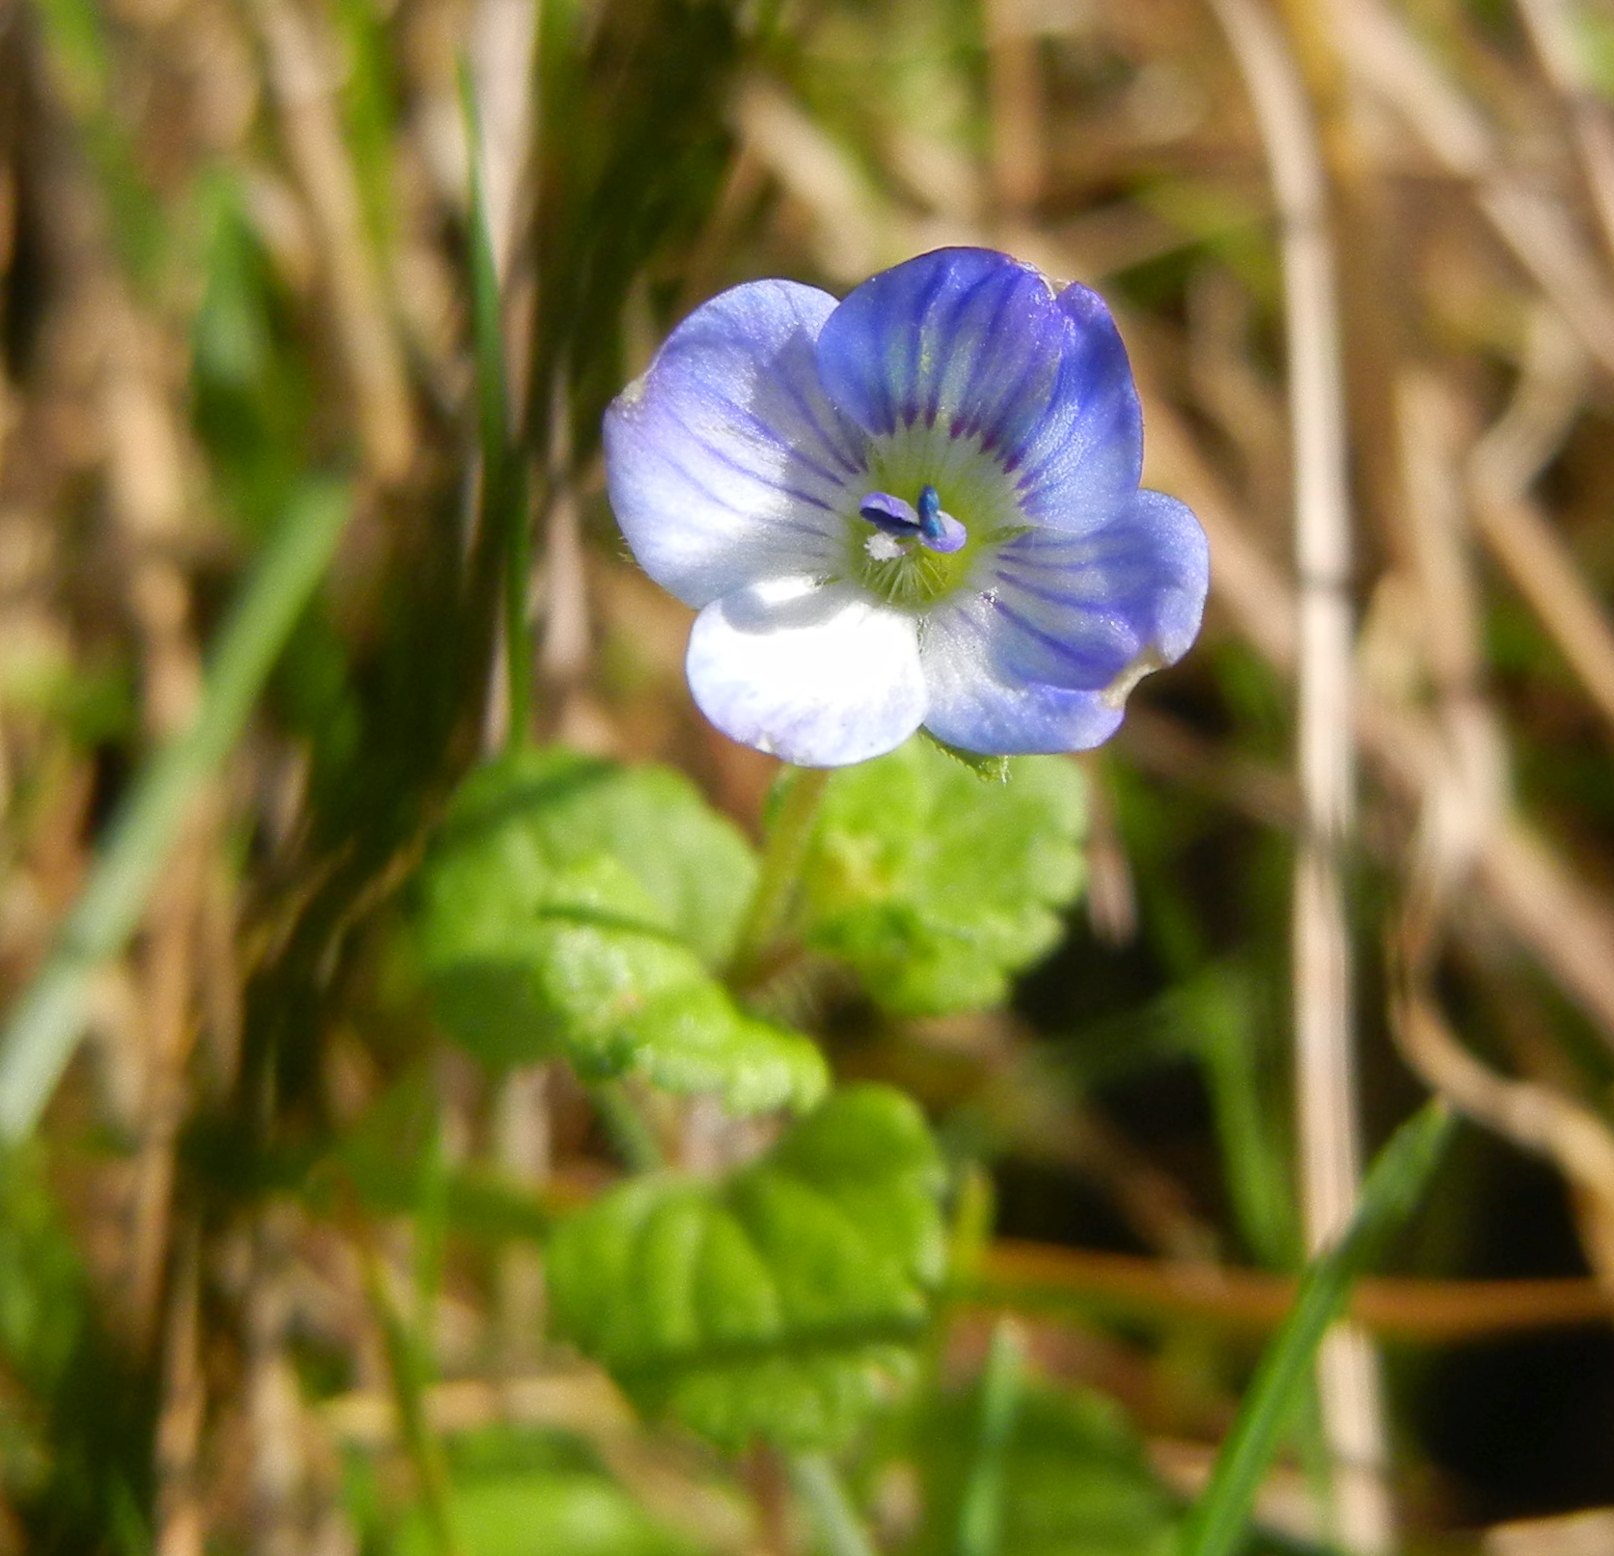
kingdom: Plantae
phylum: Tracheophyta
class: Magnoliopsida
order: Lamiales
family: Plantaginaceae
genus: Veronica
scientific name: Veronica persica
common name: Common field-speedwell
